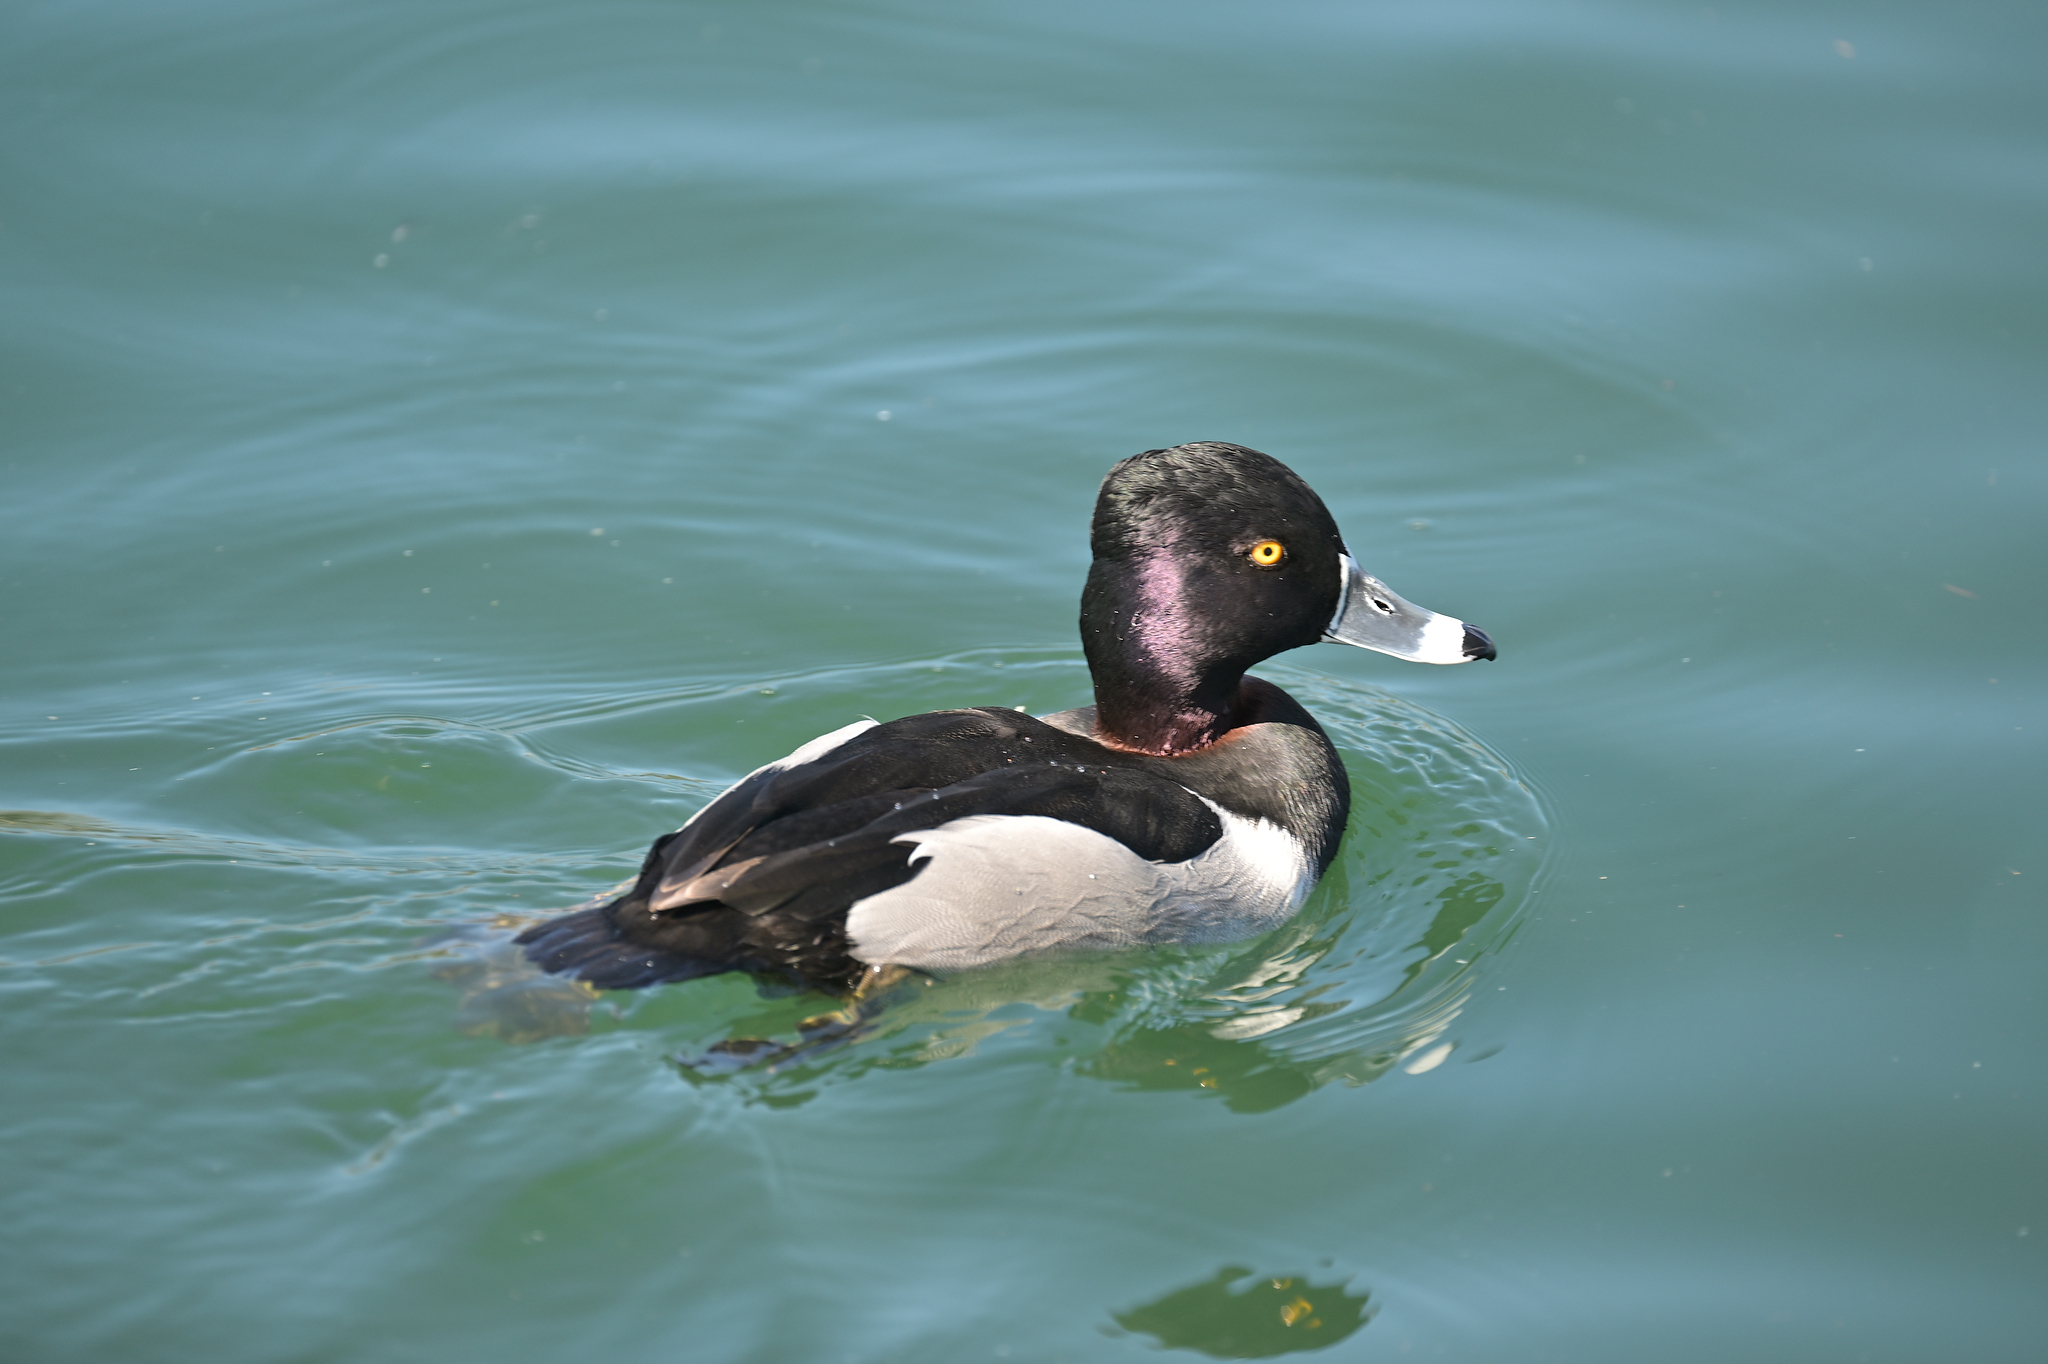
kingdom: Animalia
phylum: Chordata
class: Aves
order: Anseriformes
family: Anatidae
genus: Aythya
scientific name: Aythya collaris
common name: Ring-necked duck
